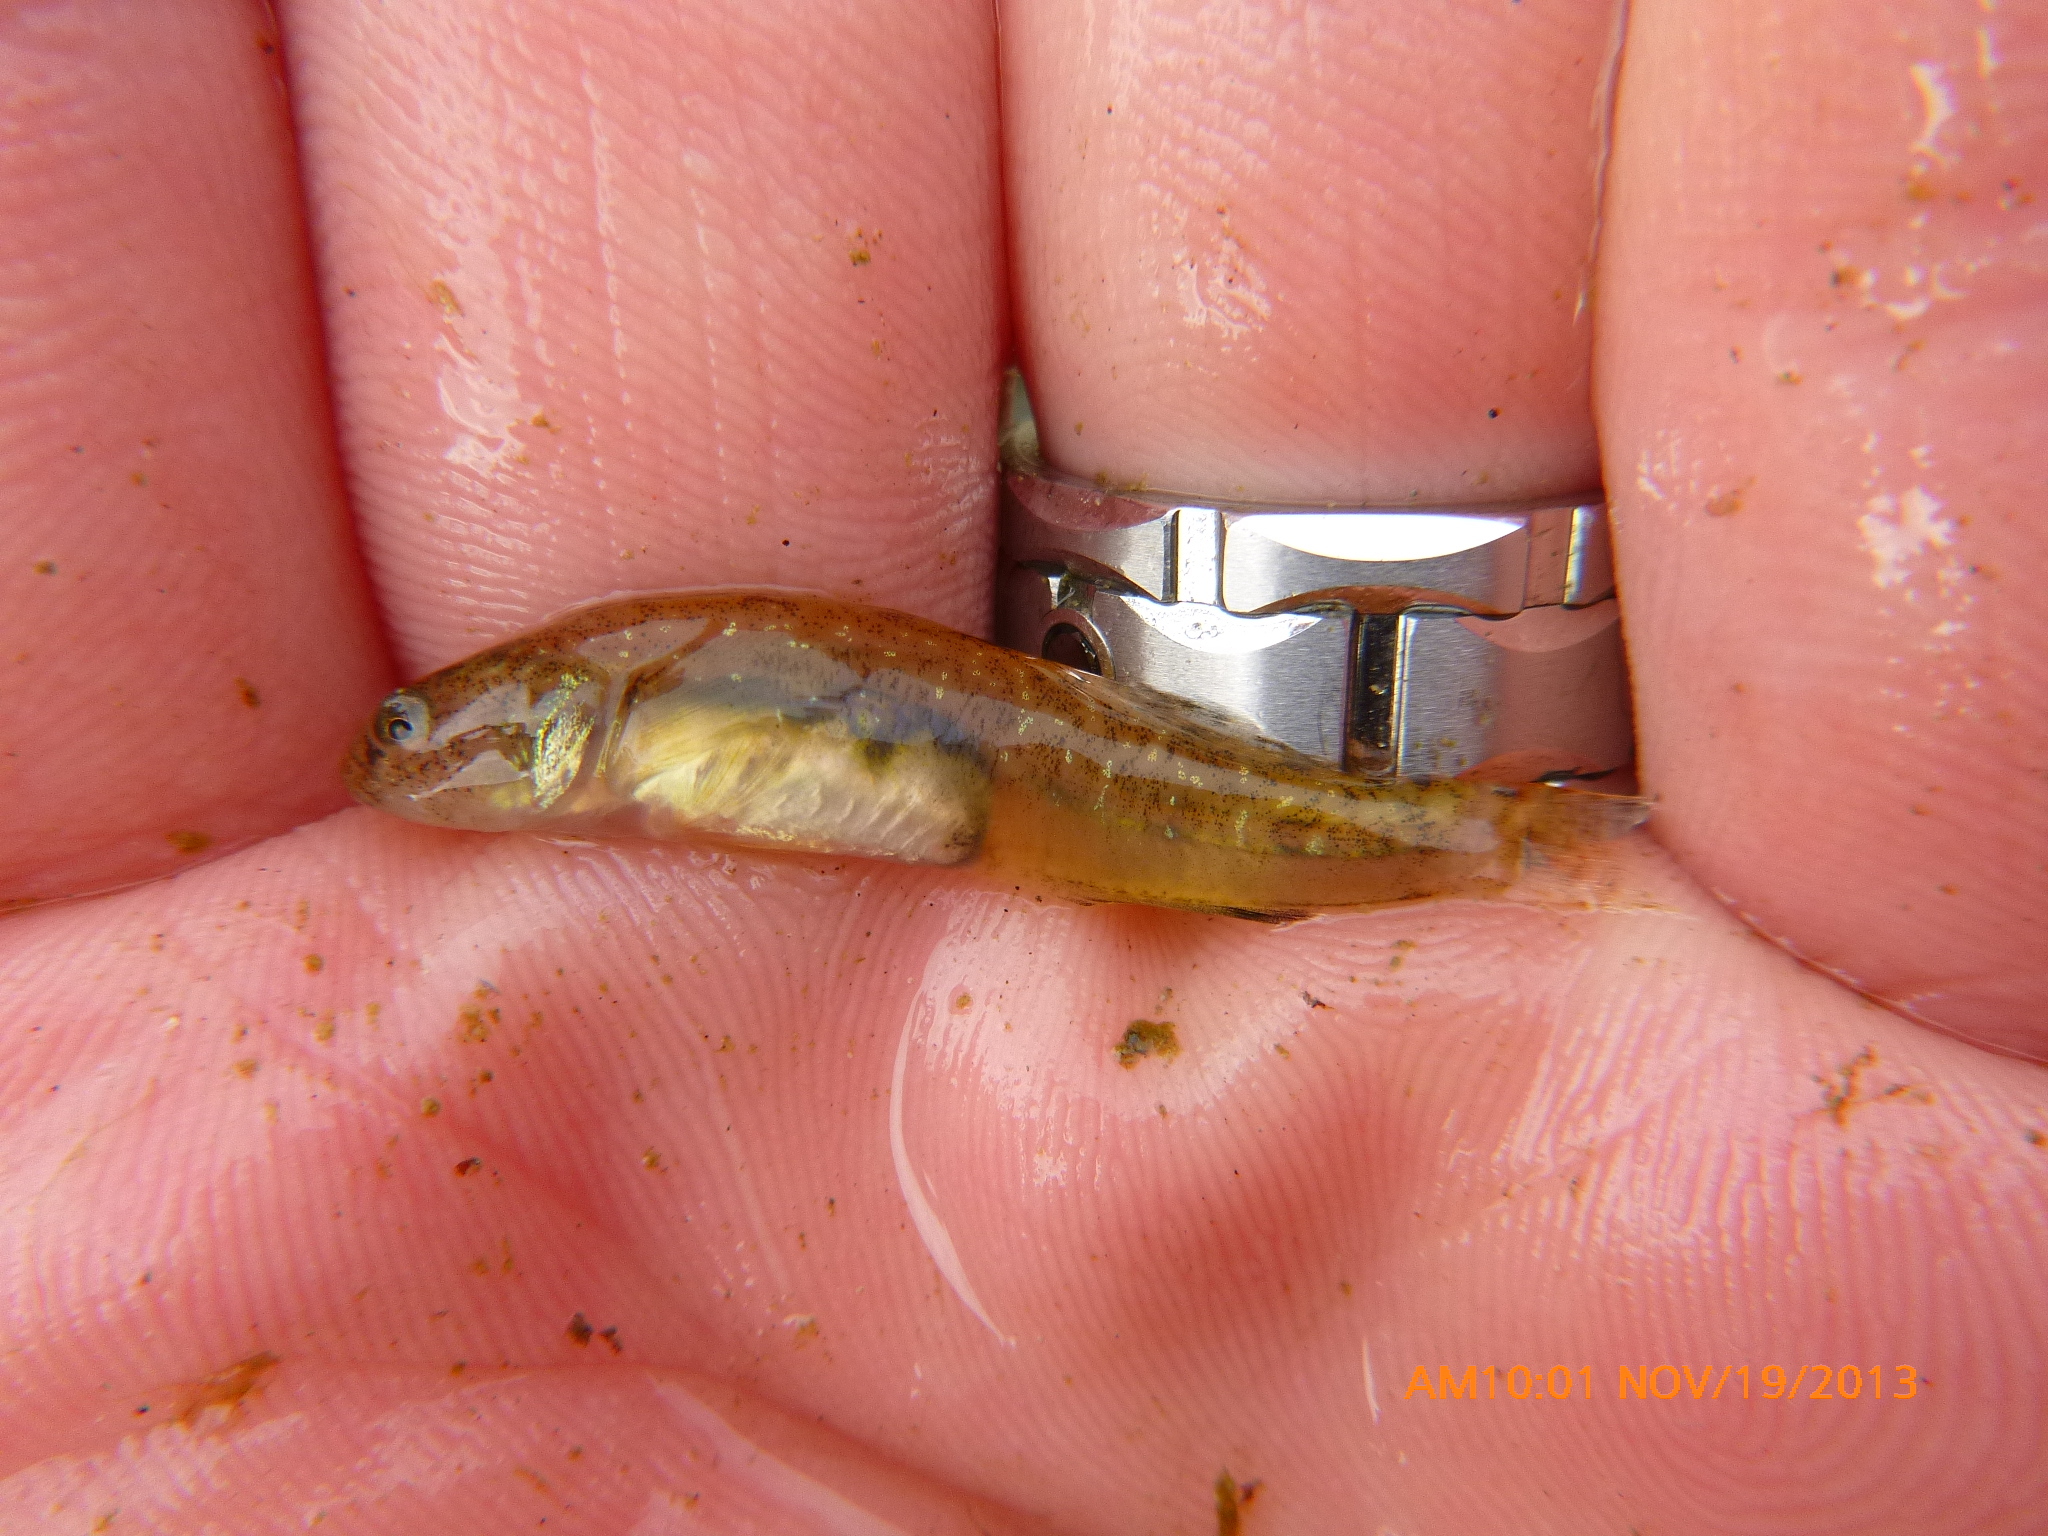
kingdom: Animalia
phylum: Chordata
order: Perciformes
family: Gobiidae
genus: Eucyclogobius
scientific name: Eucyclogobius newberryi
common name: Tidewater goby
